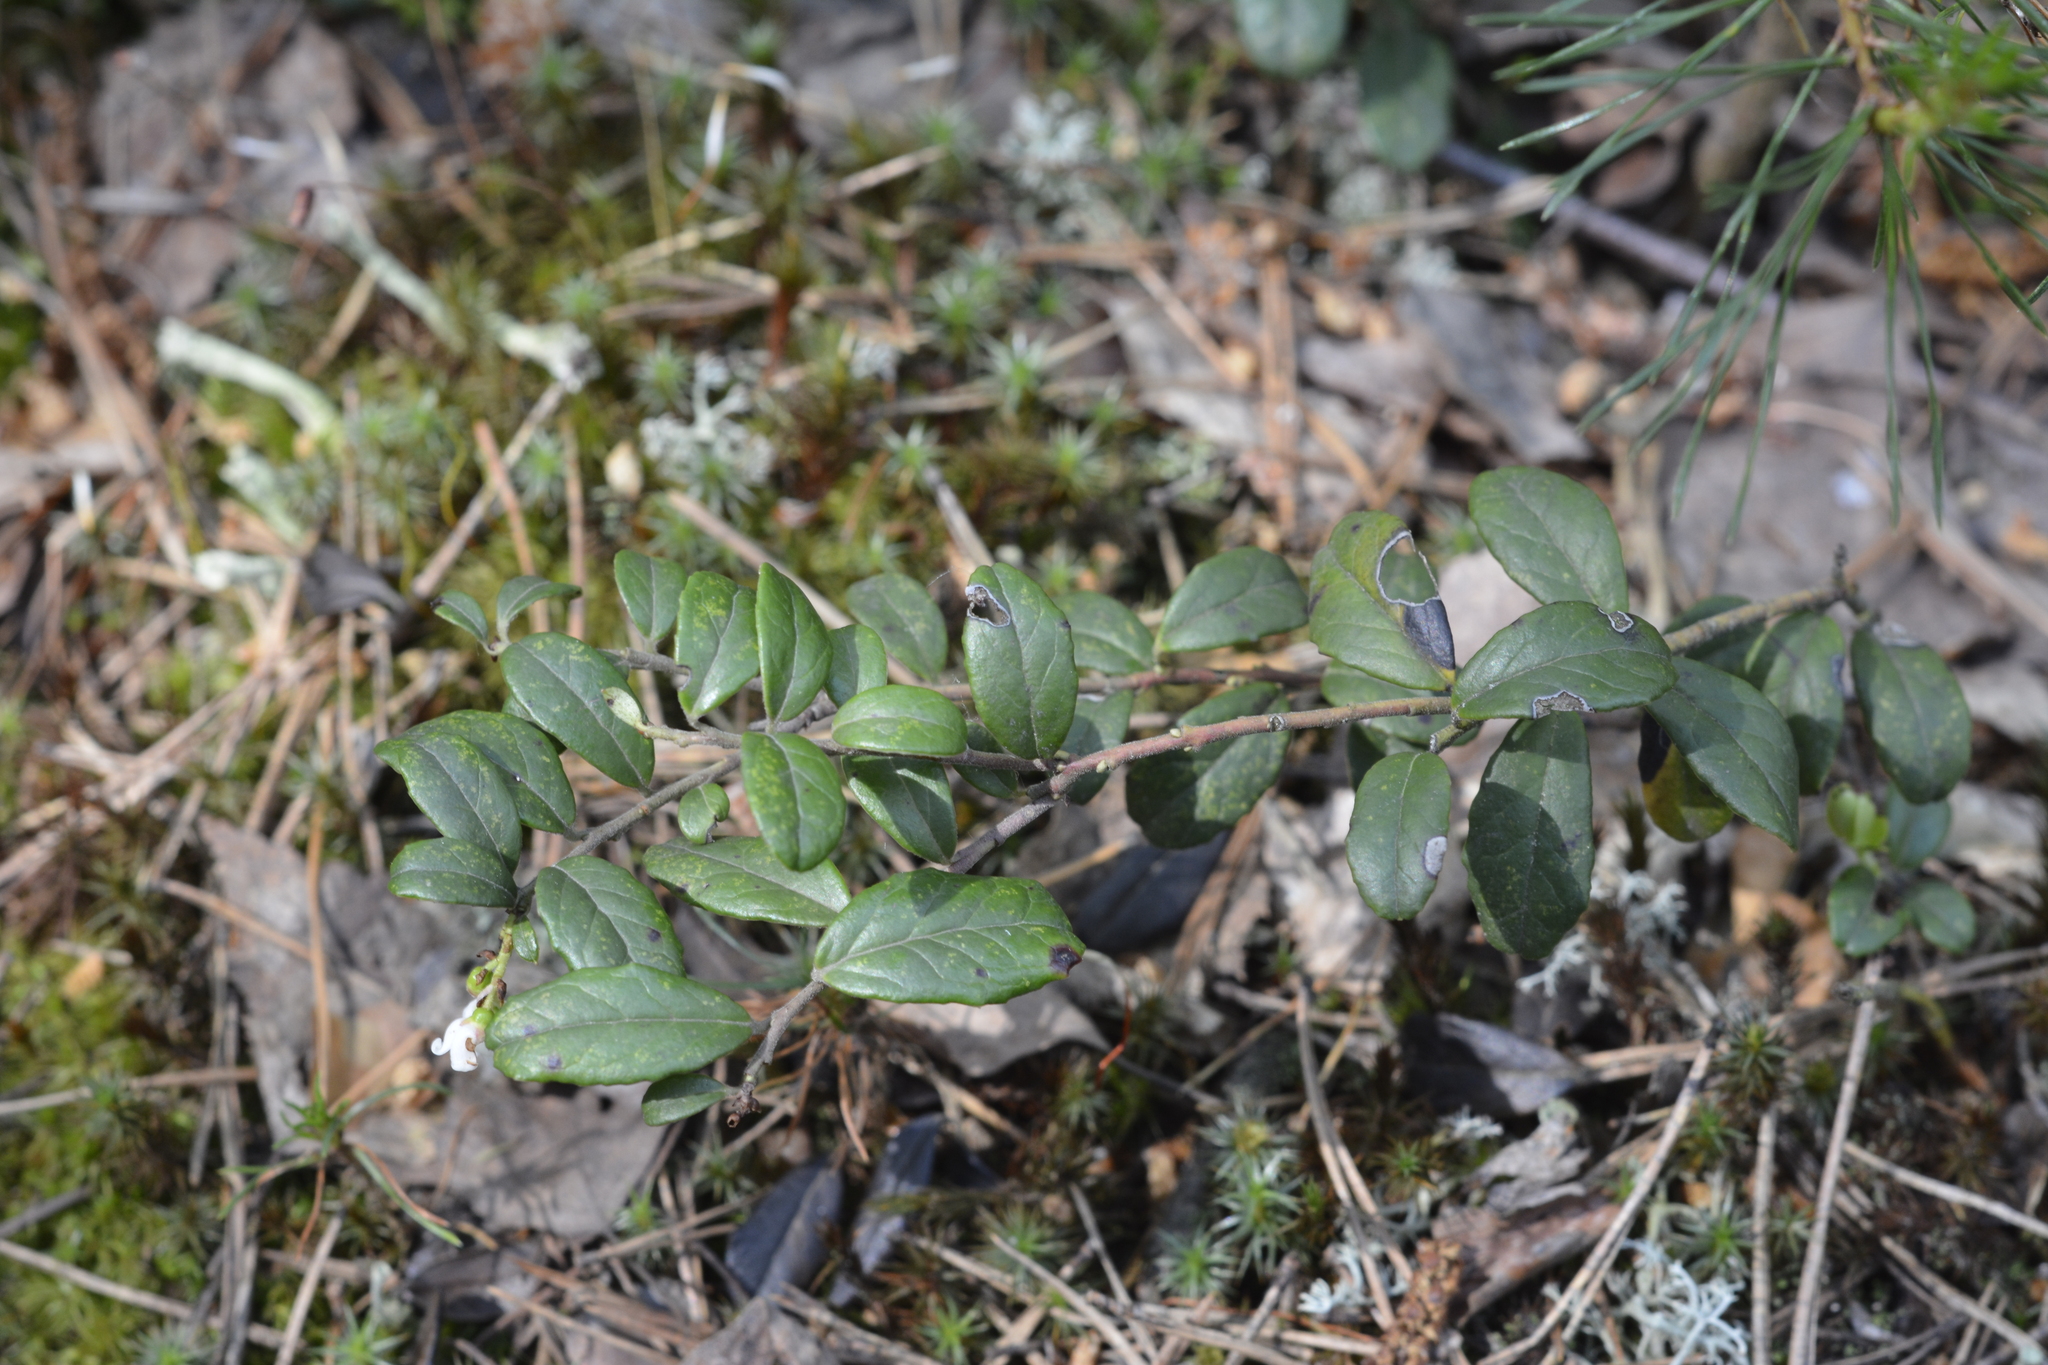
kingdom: Plantae
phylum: Tracheophyta
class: Magnoliopsida
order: Ericales
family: Ericaceae
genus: Vaccinium
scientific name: Vaccinium vitis-idaea
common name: Cowberry
